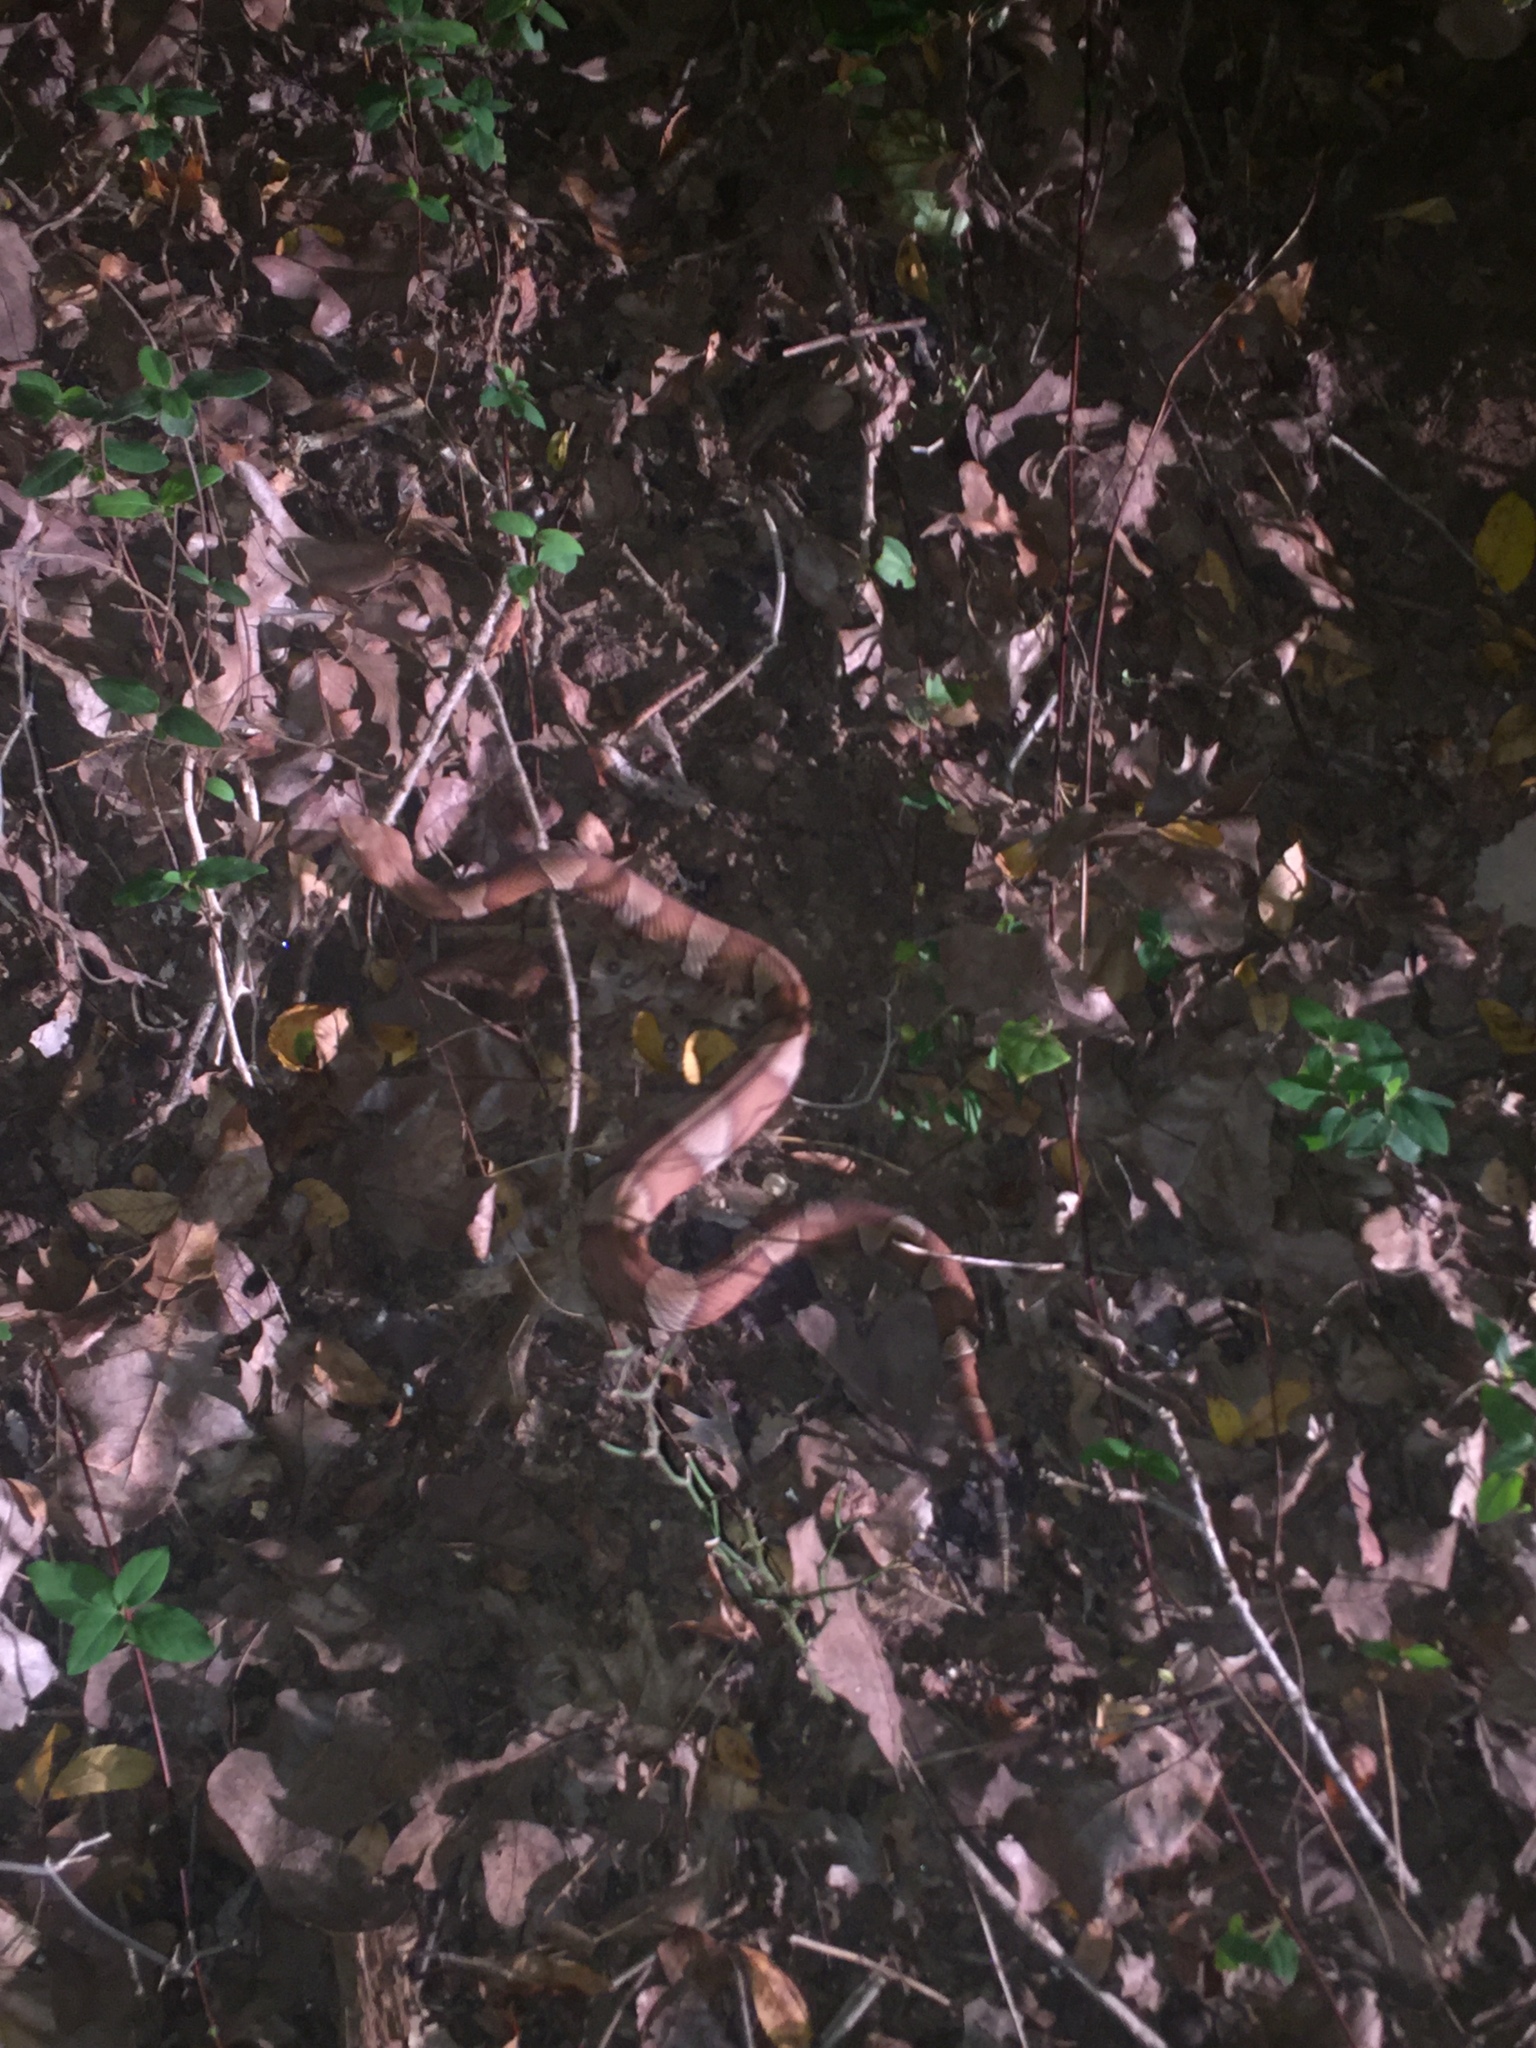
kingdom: Animalia
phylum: Chordata
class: Squamata
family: Viperidae
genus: Agkistrodon
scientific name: Agkistrodon laticinctus
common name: Broad-banded copperhead
